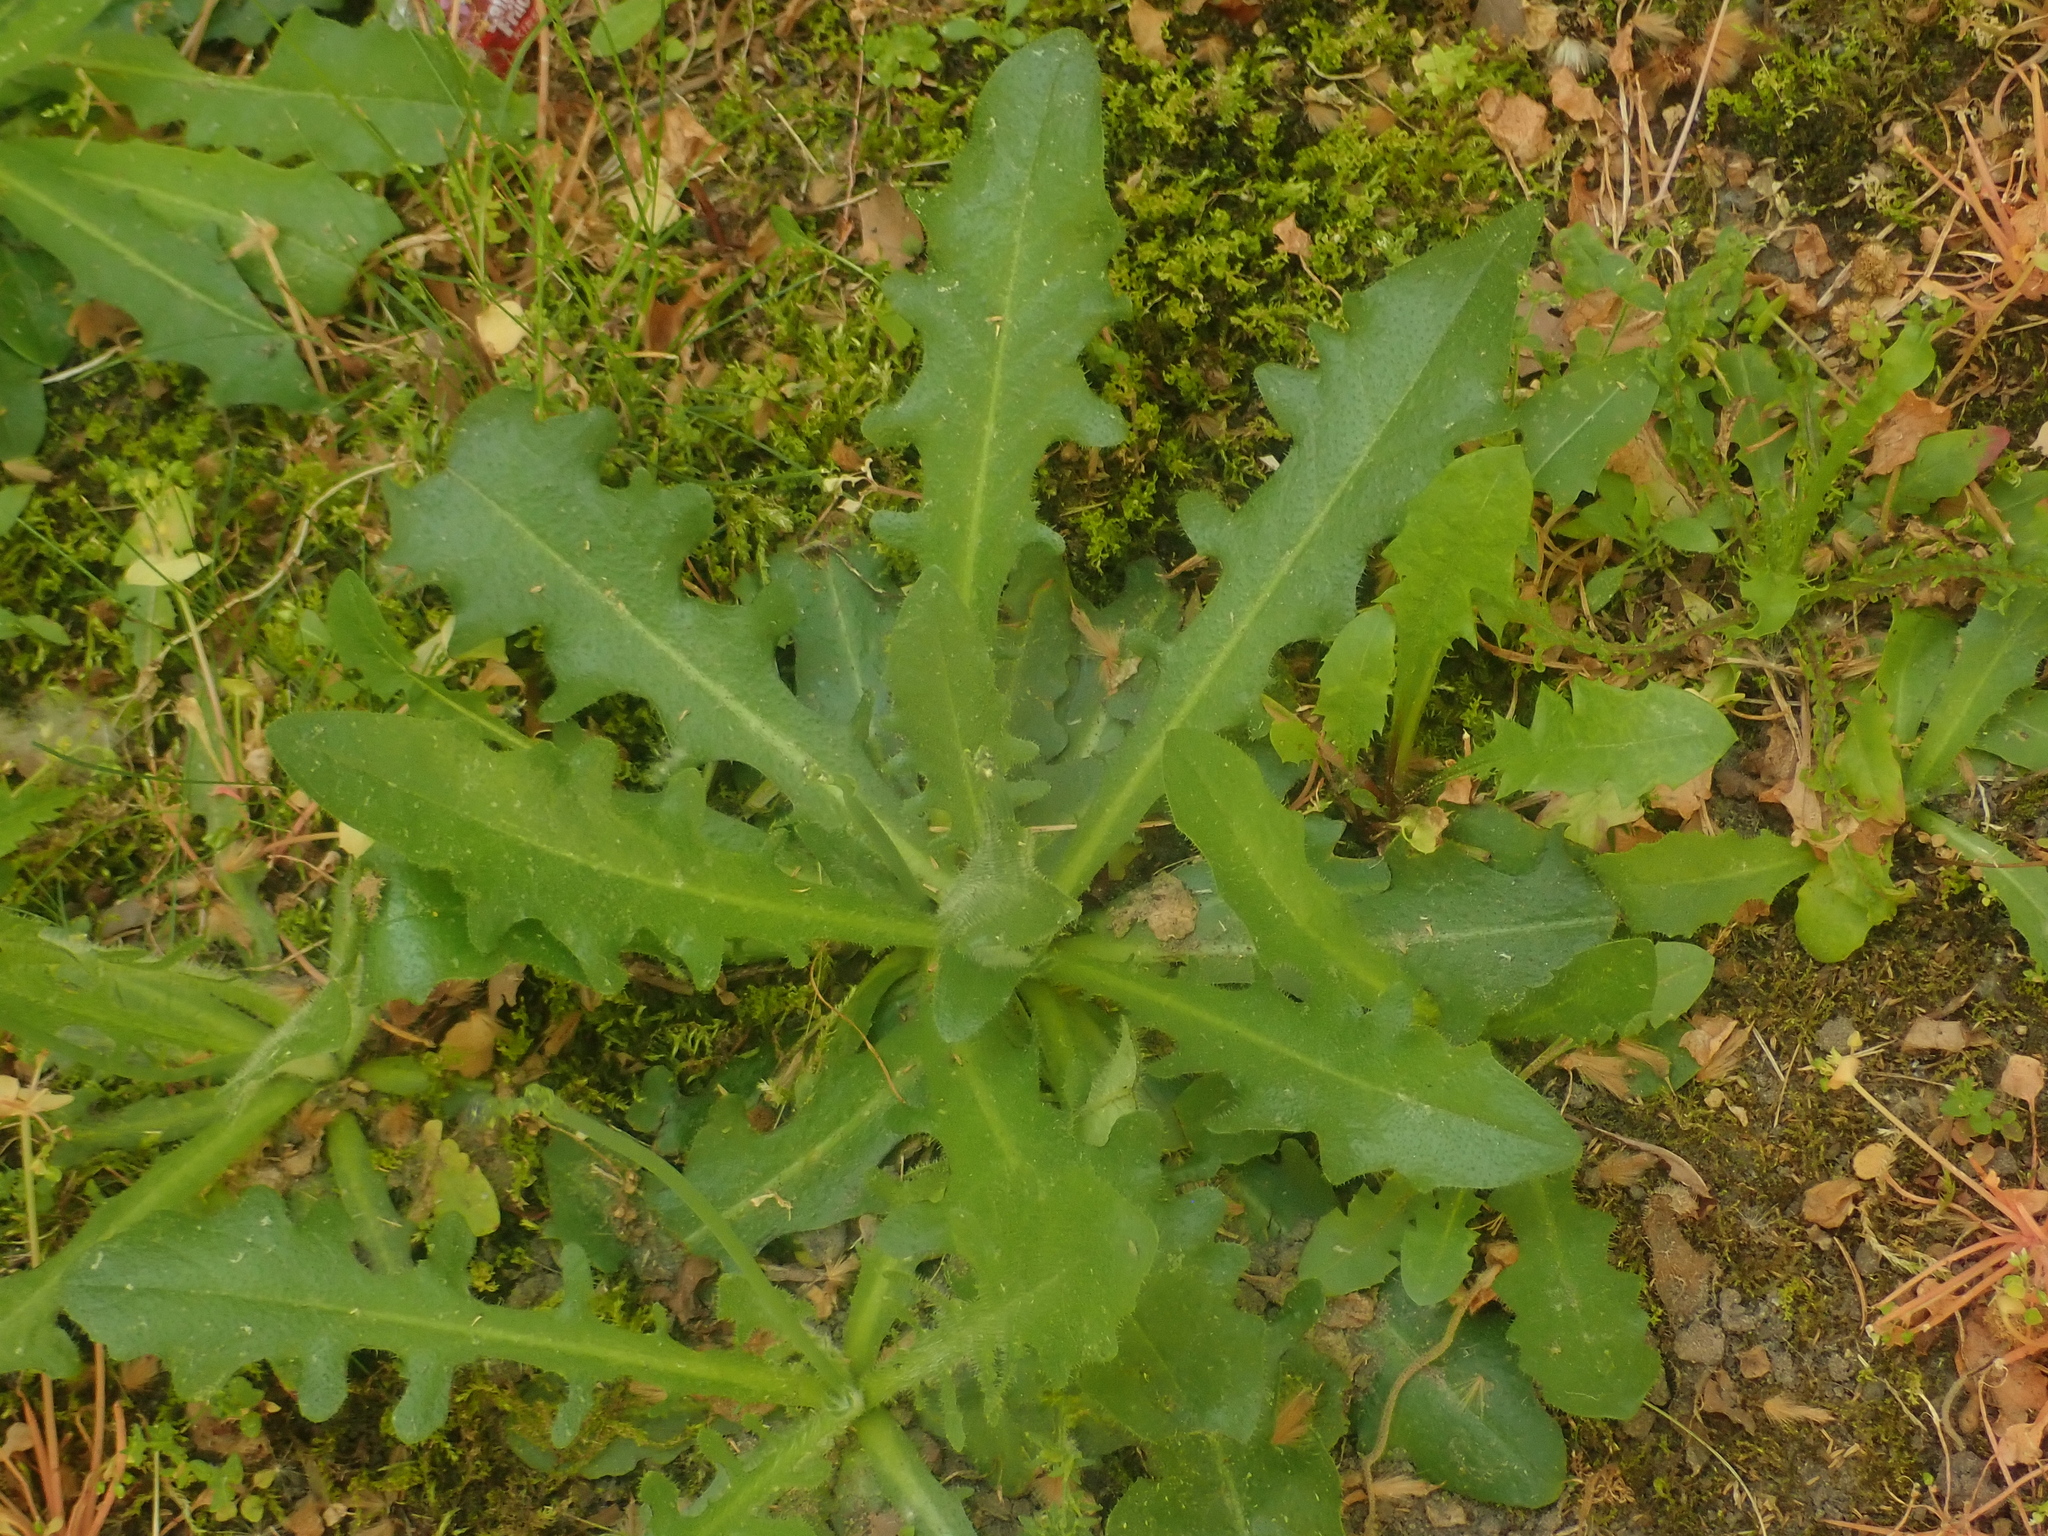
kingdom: Plantae
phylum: Tracheophyta
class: Magnoliopsida
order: Asterales
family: Asteraceae
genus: Hypochaeris
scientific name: Hypochaeris radicata
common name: Flatweed
